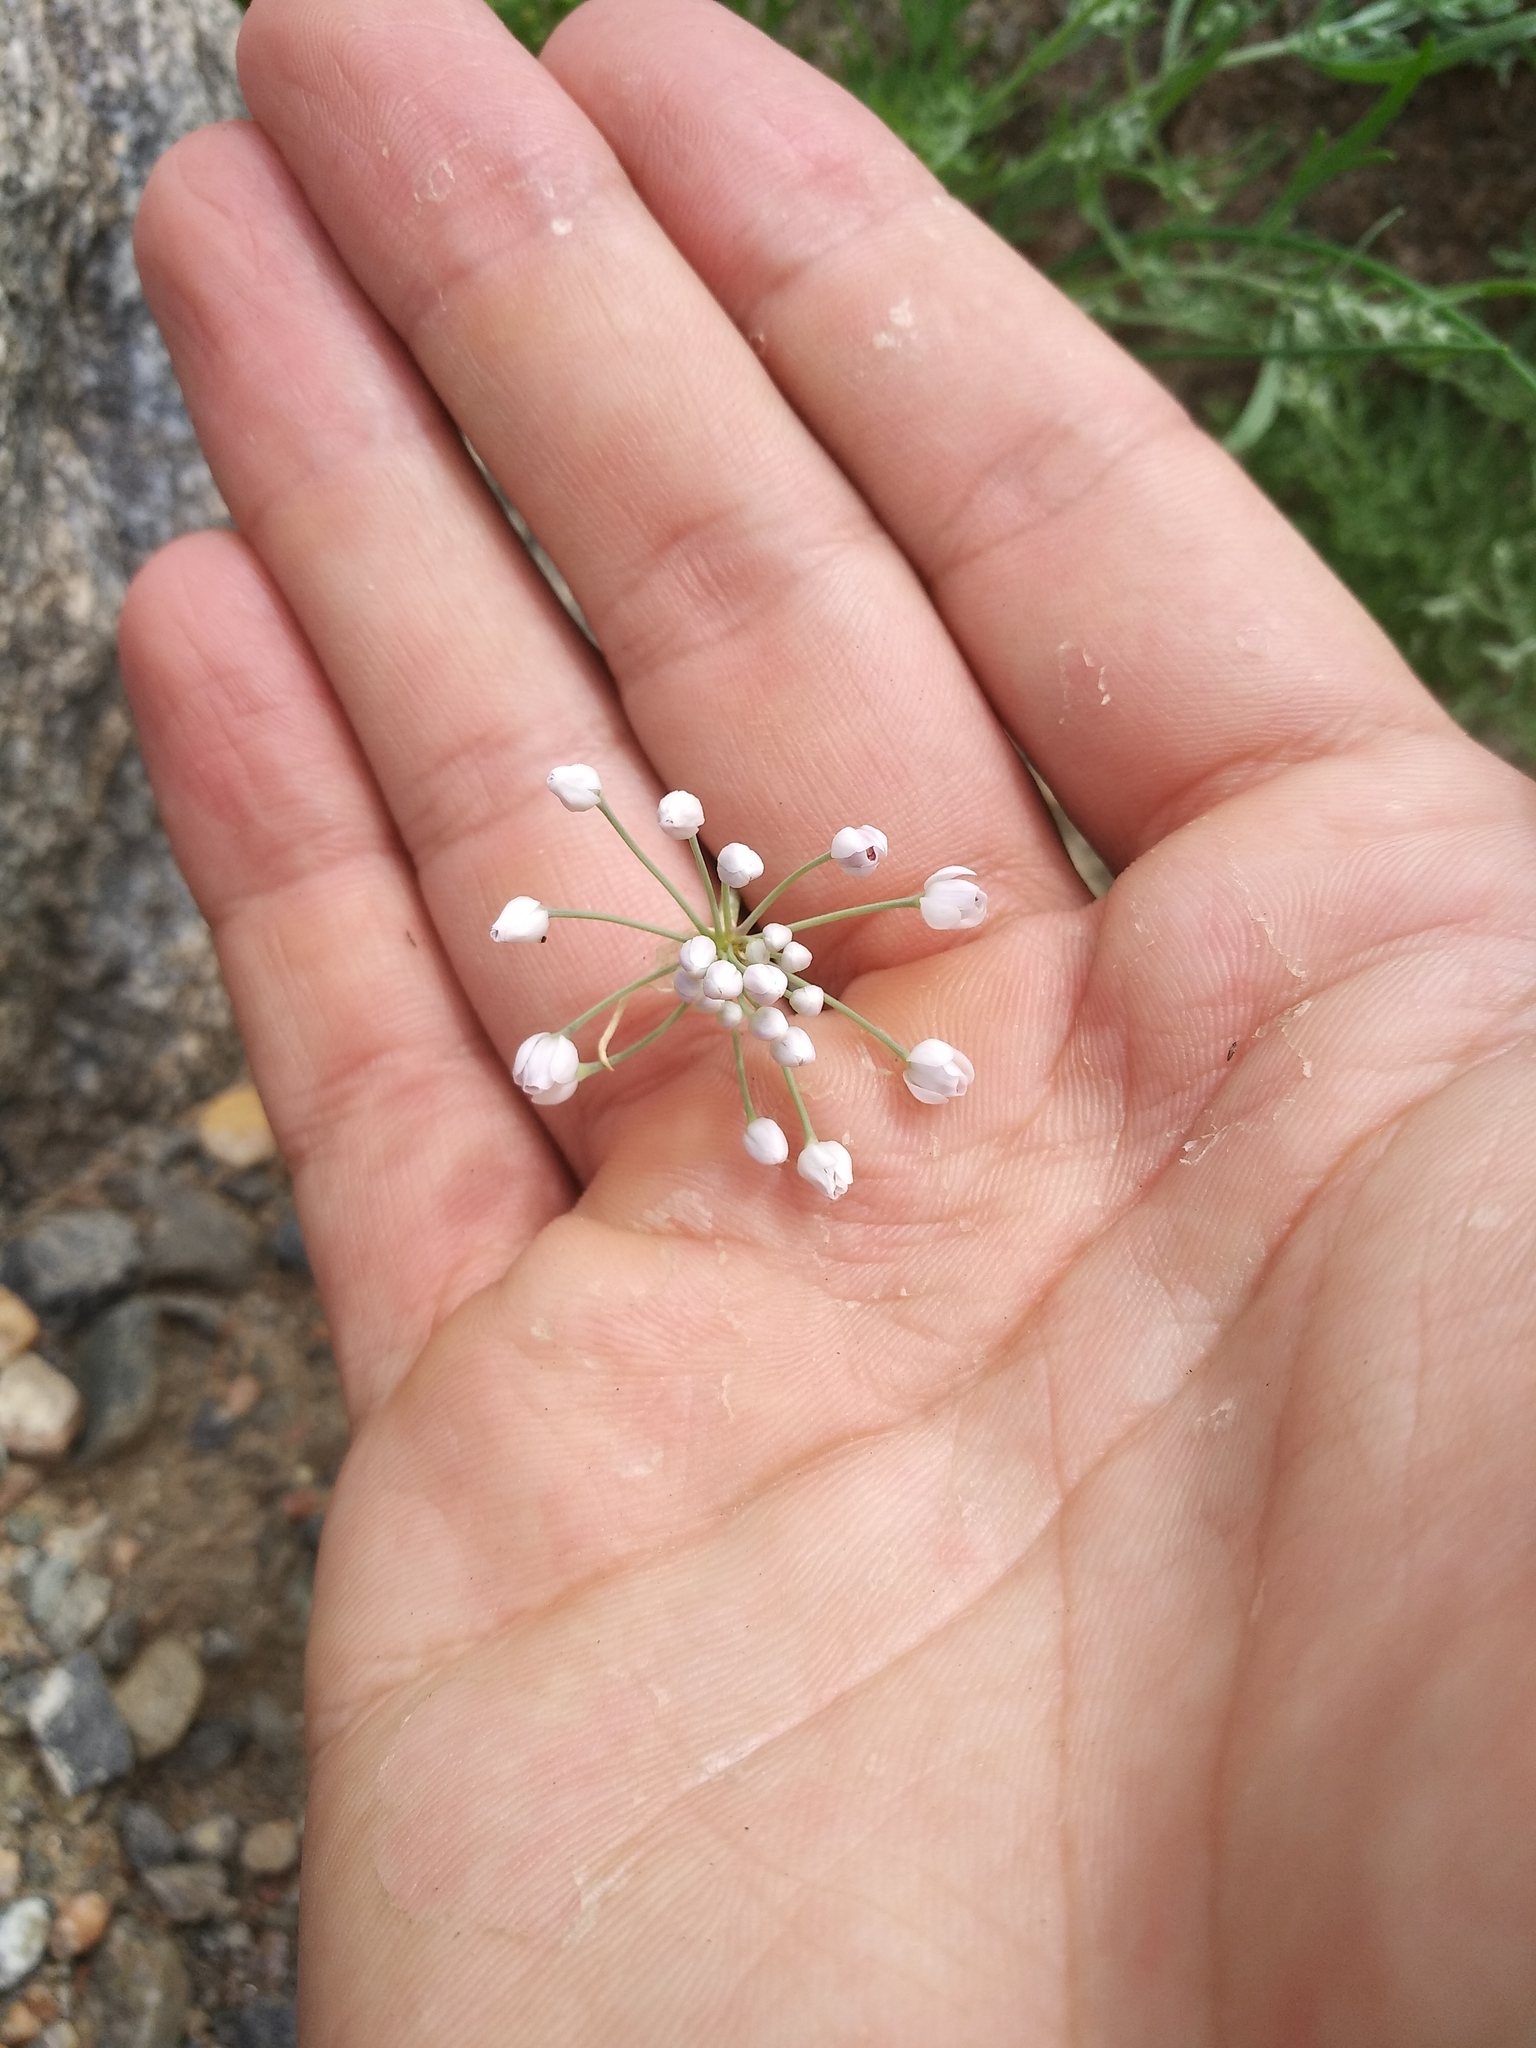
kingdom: Plantae
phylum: Tracheophyta
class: Liliopsida
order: Asparagales
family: Amaryllidaceae
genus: Allium
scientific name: Allium anisopodium
